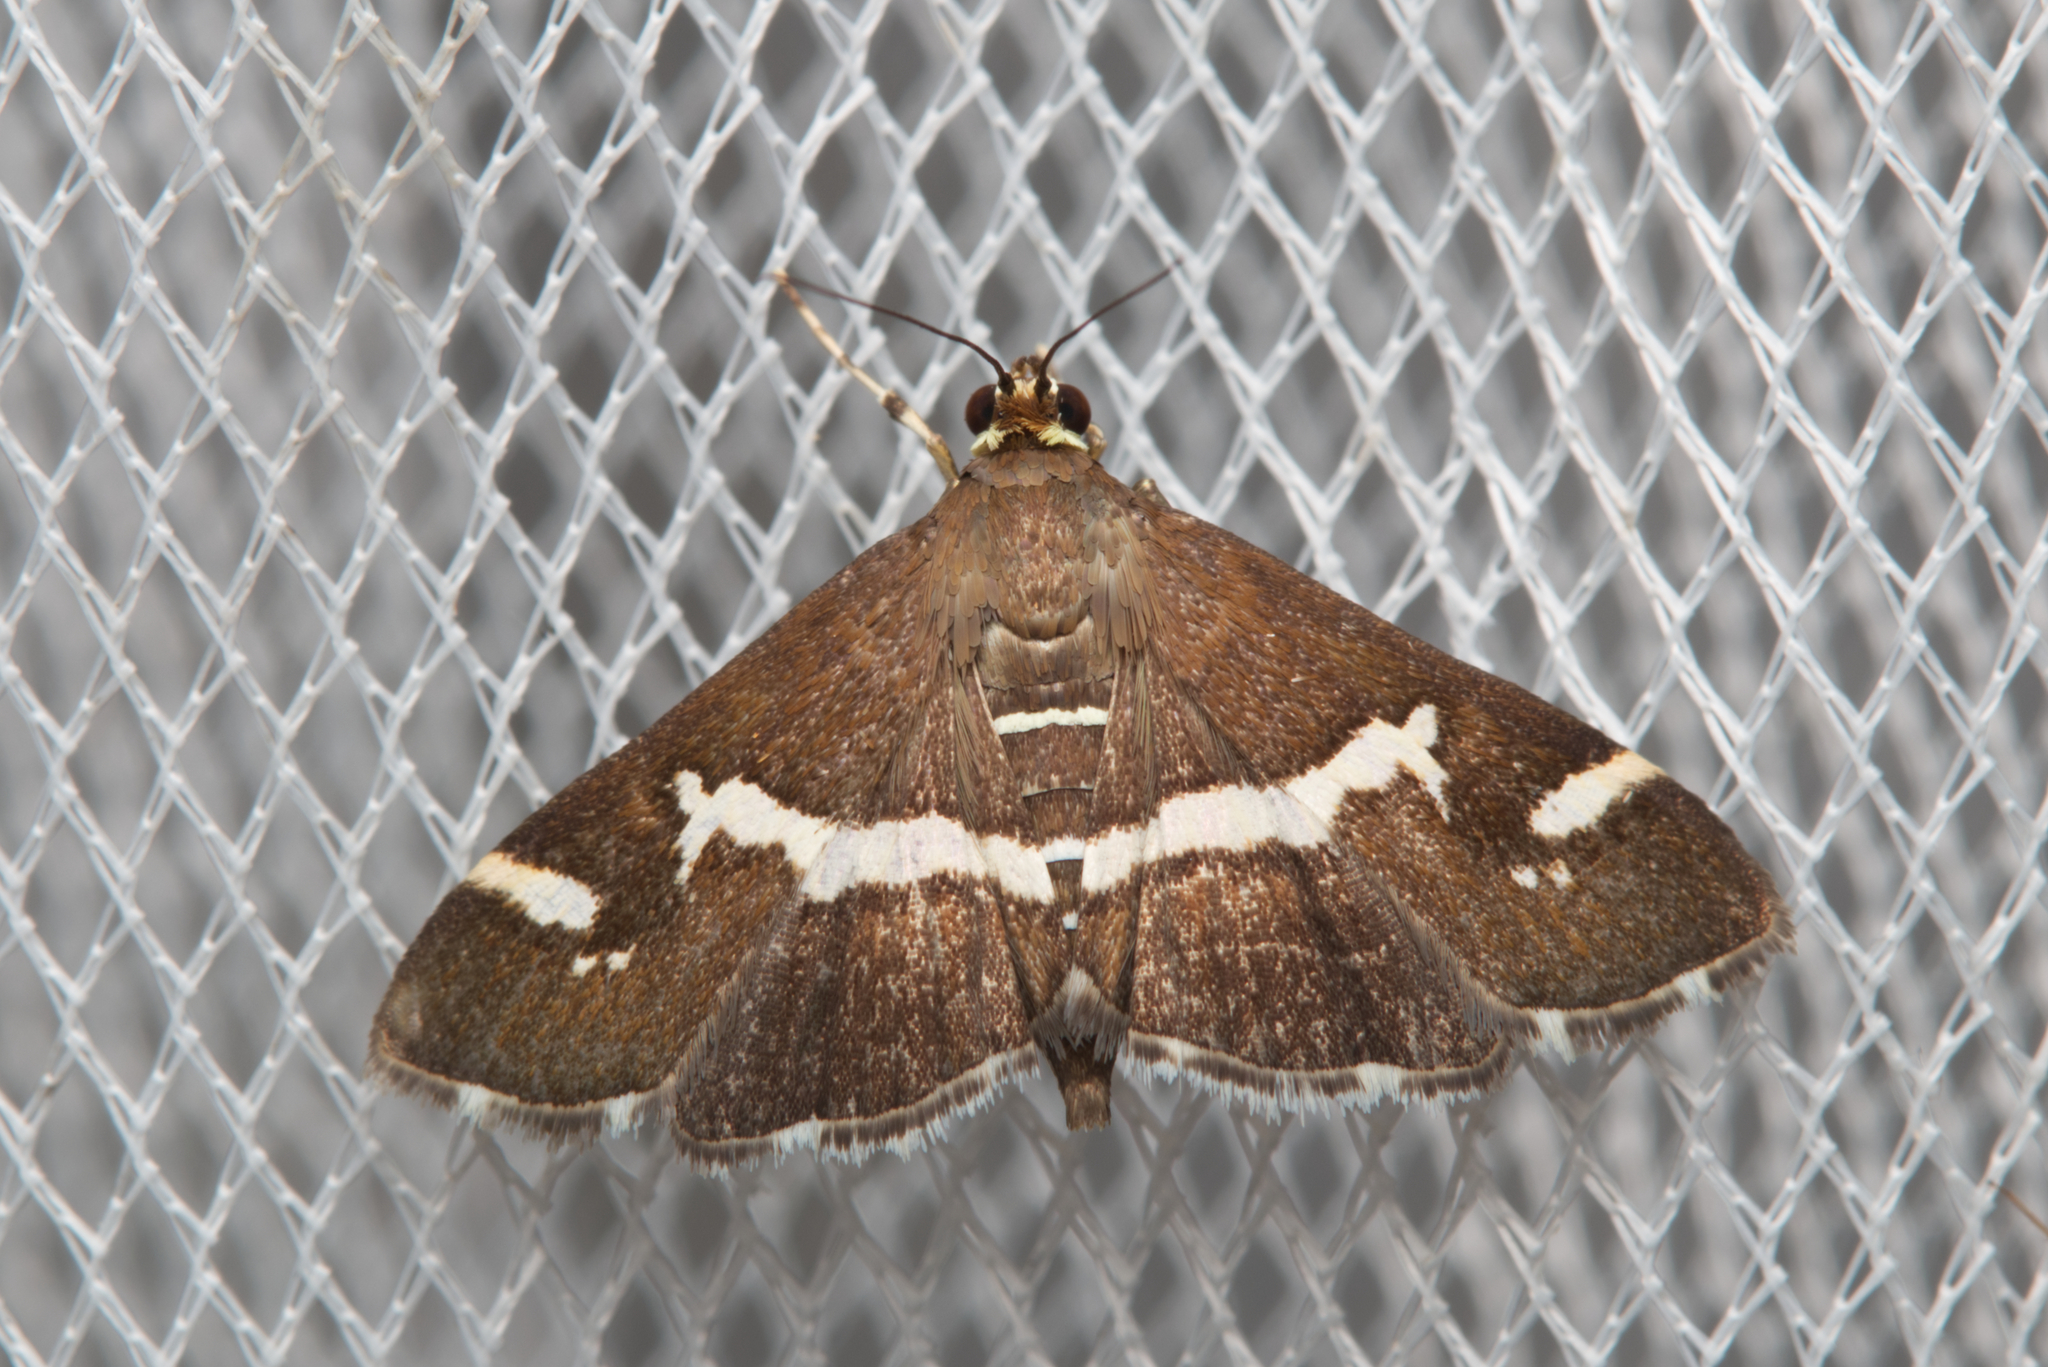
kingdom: Animalia
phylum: Arthropoda
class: Insecta
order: Lepidoptera
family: Crambidae
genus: Spoladea
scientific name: Spoladea recurvalis
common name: Beet webworm moth
